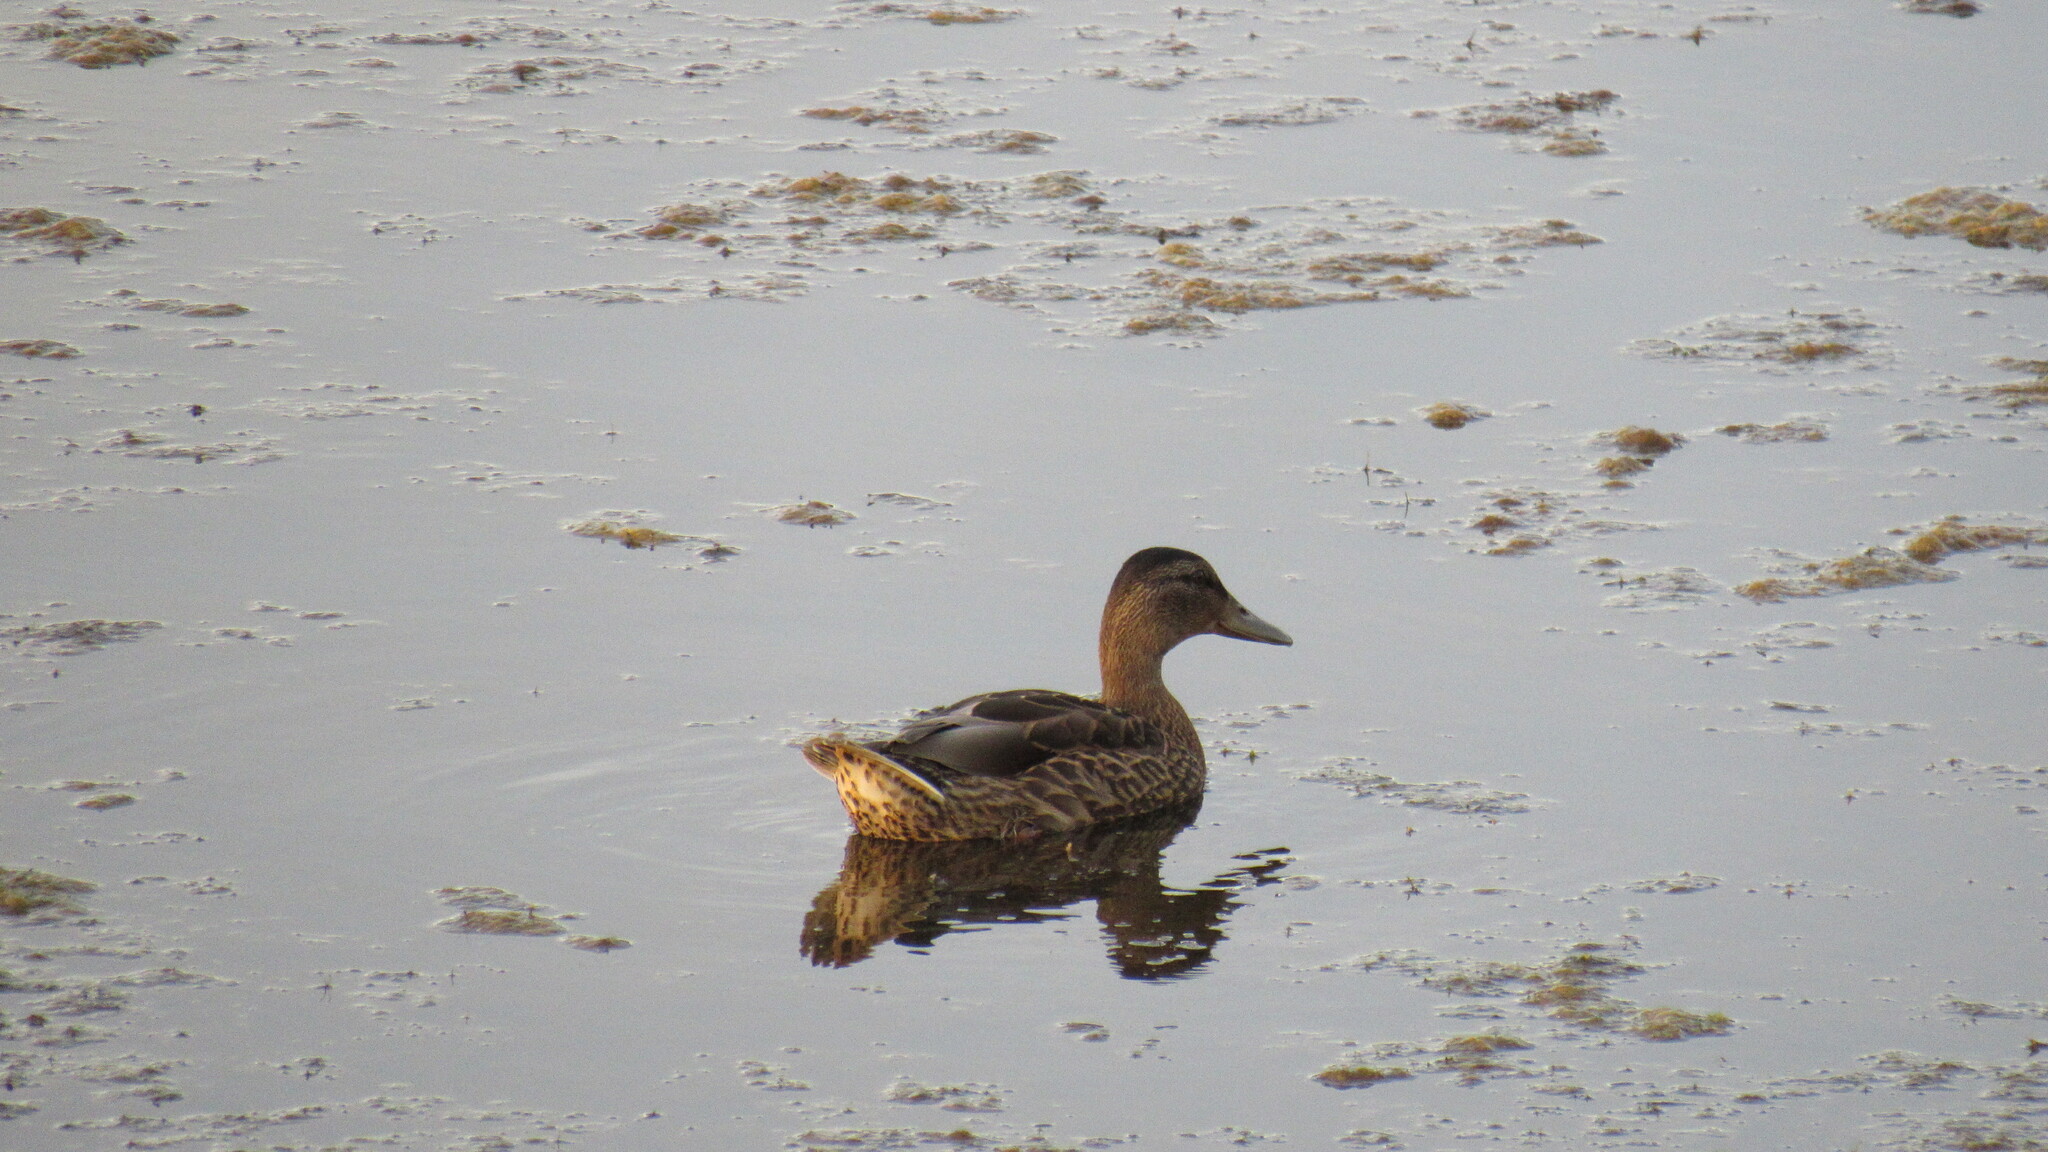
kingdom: Animalia
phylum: Chordata
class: Aves
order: Anseriformes
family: Anatidae
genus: Anas
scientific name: Anas platyrhynchos
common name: Mallard
